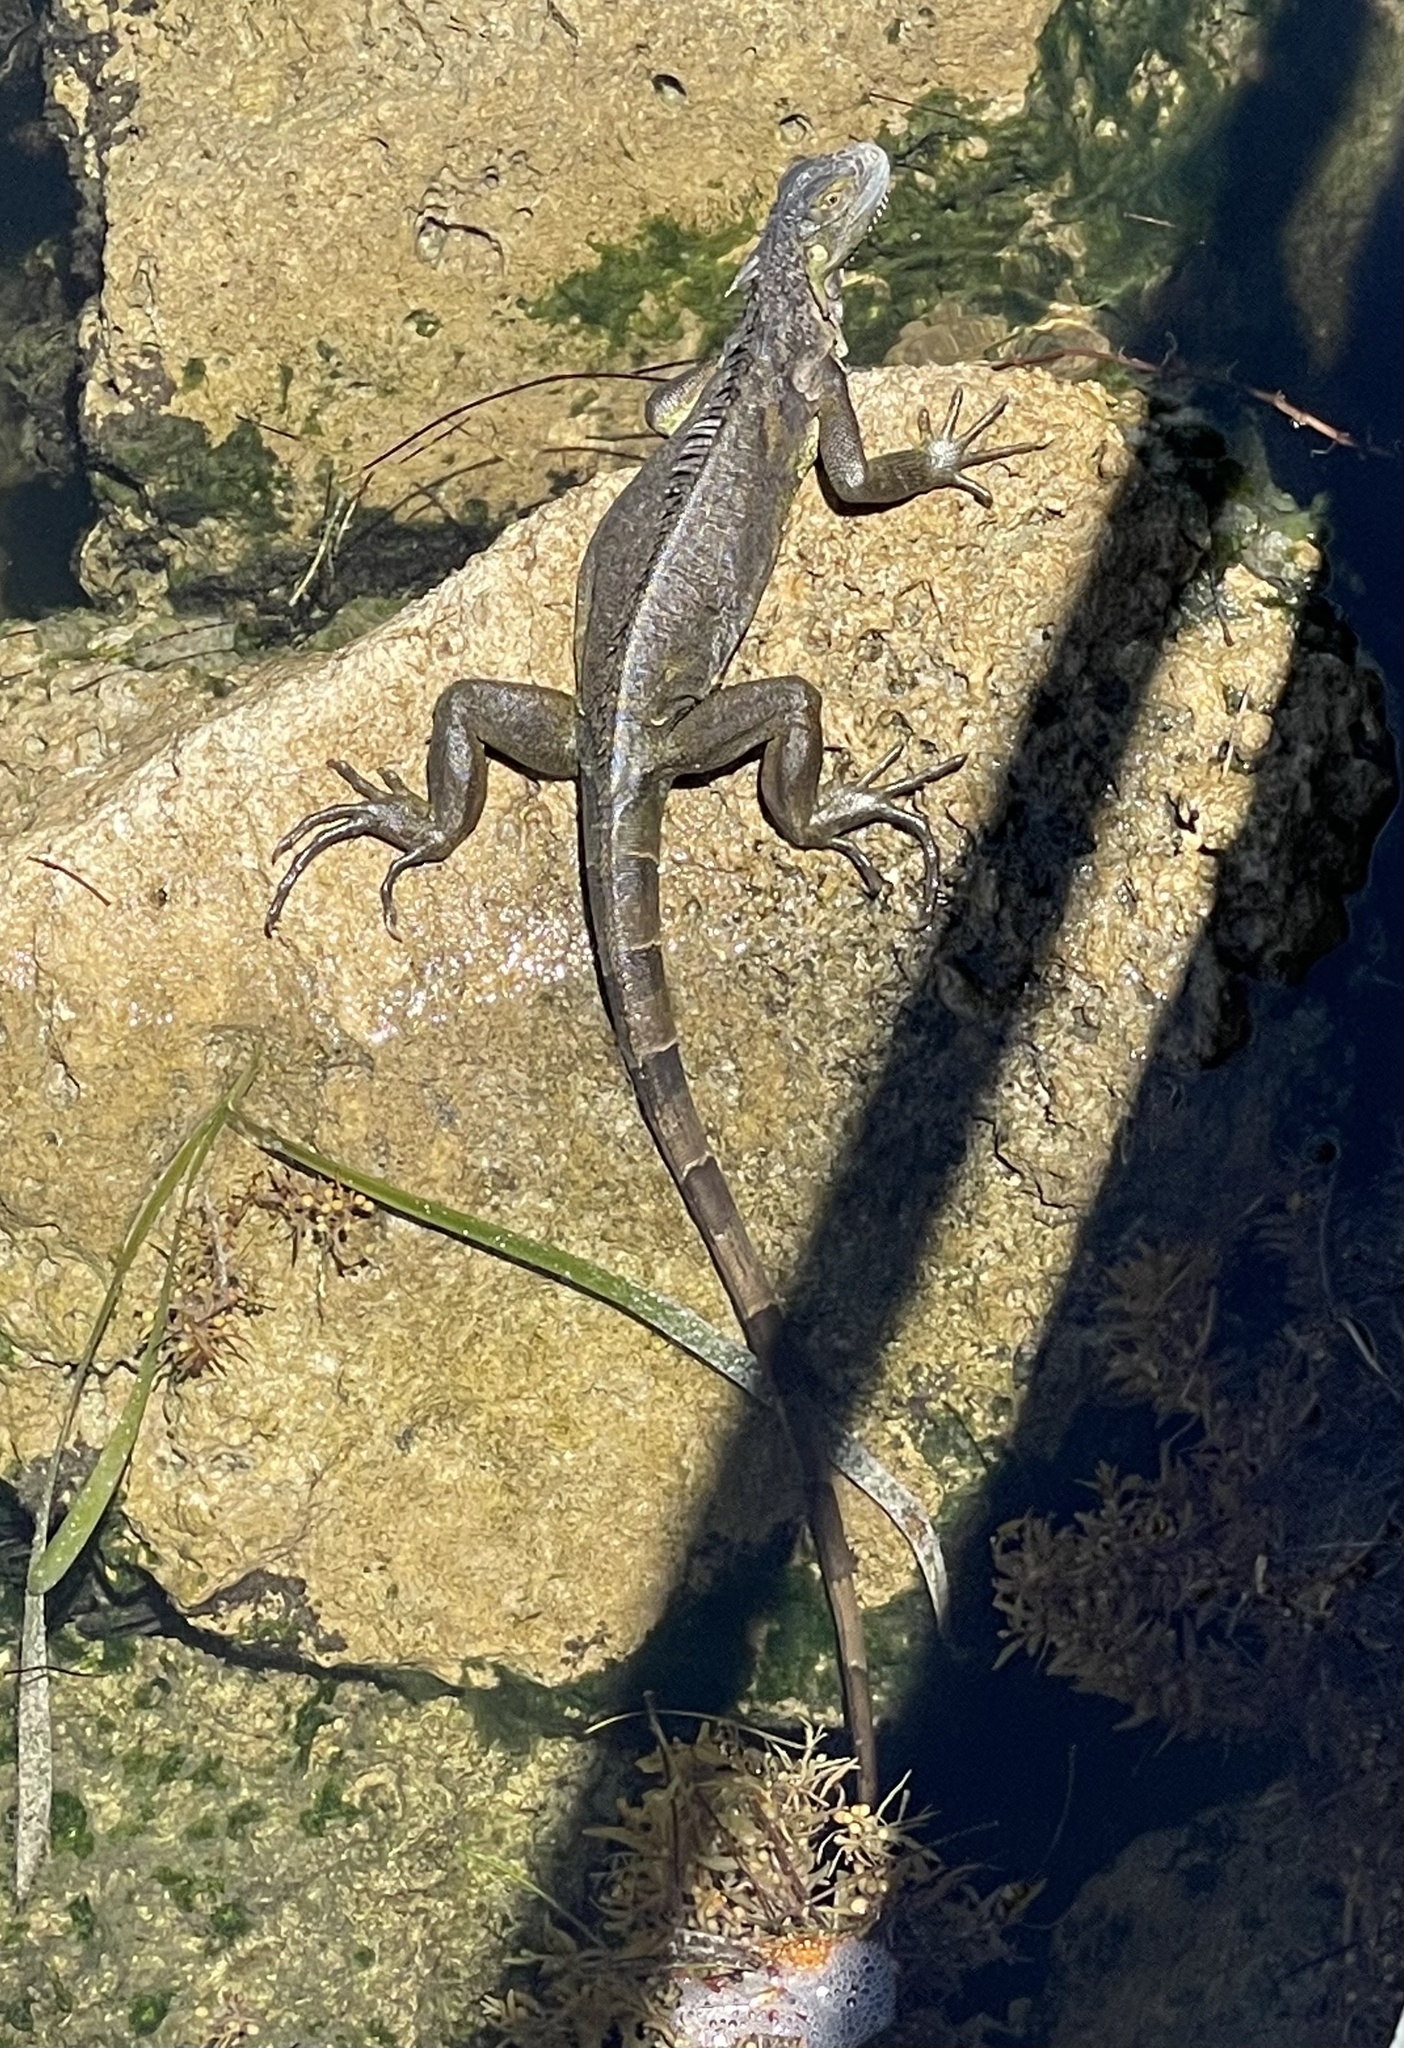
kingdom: Animalia
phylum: Chordata
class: Squamata
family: Iguanidae
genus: Iguana
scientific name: Iguana iguana
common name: Green iguana
